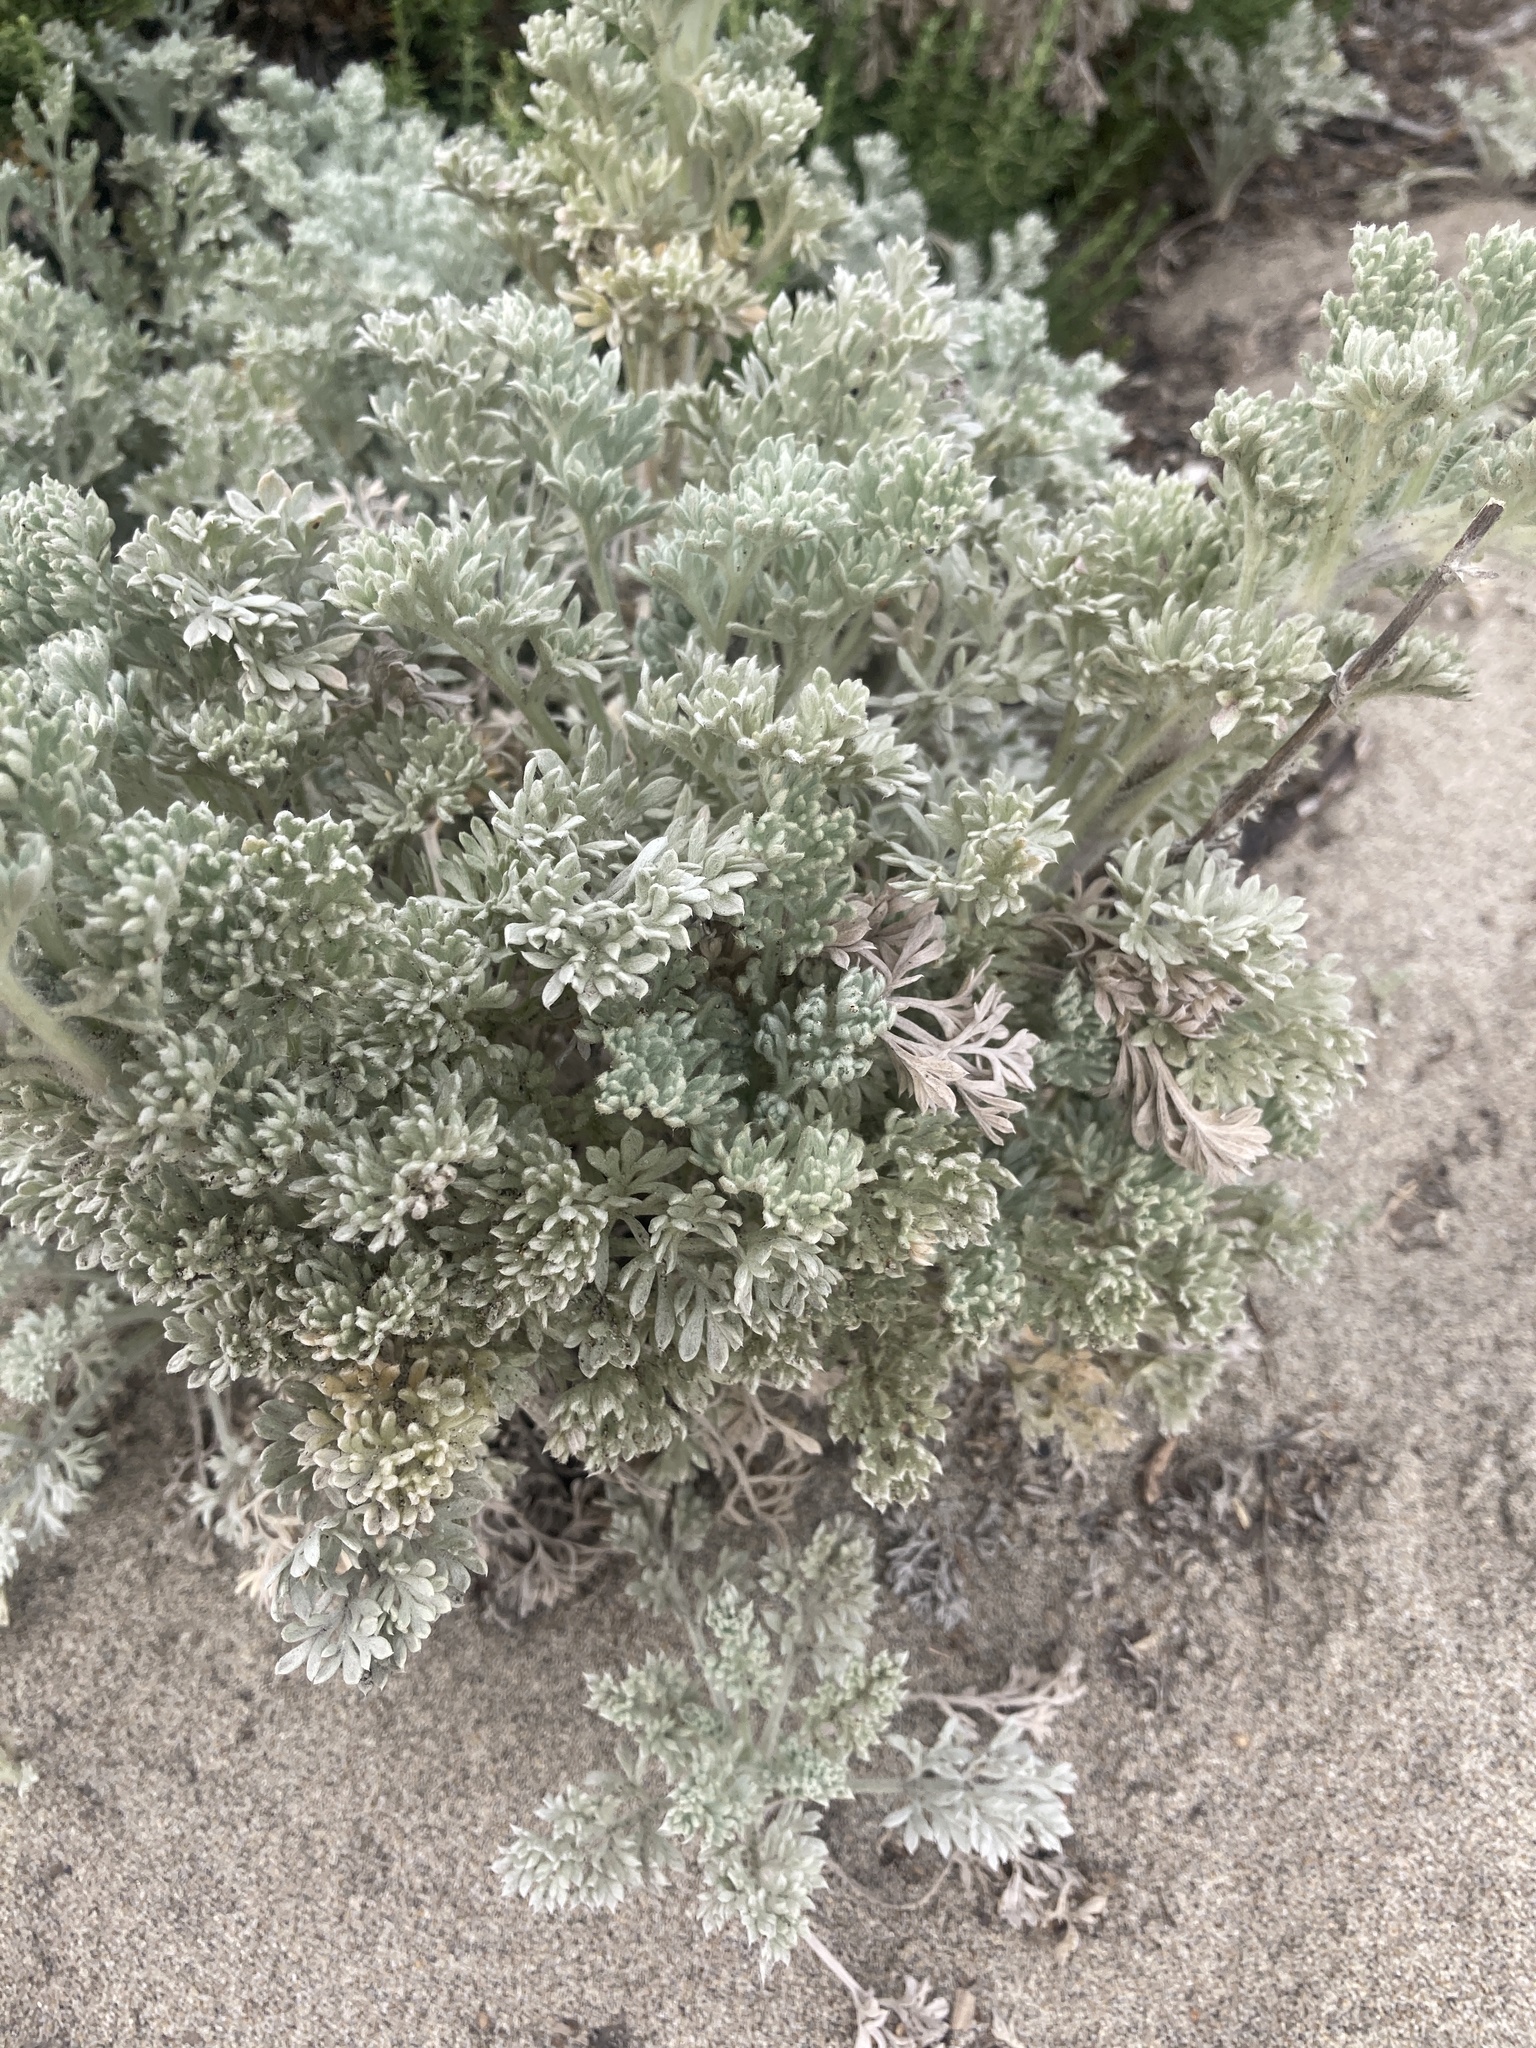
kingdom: Plantae
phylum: Tracheophyta
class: Magnoliopsida
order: Asterales
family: Asteraceae
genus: Artemisia
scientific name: Artemisia pycnocephala
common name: Coastal sagewort
